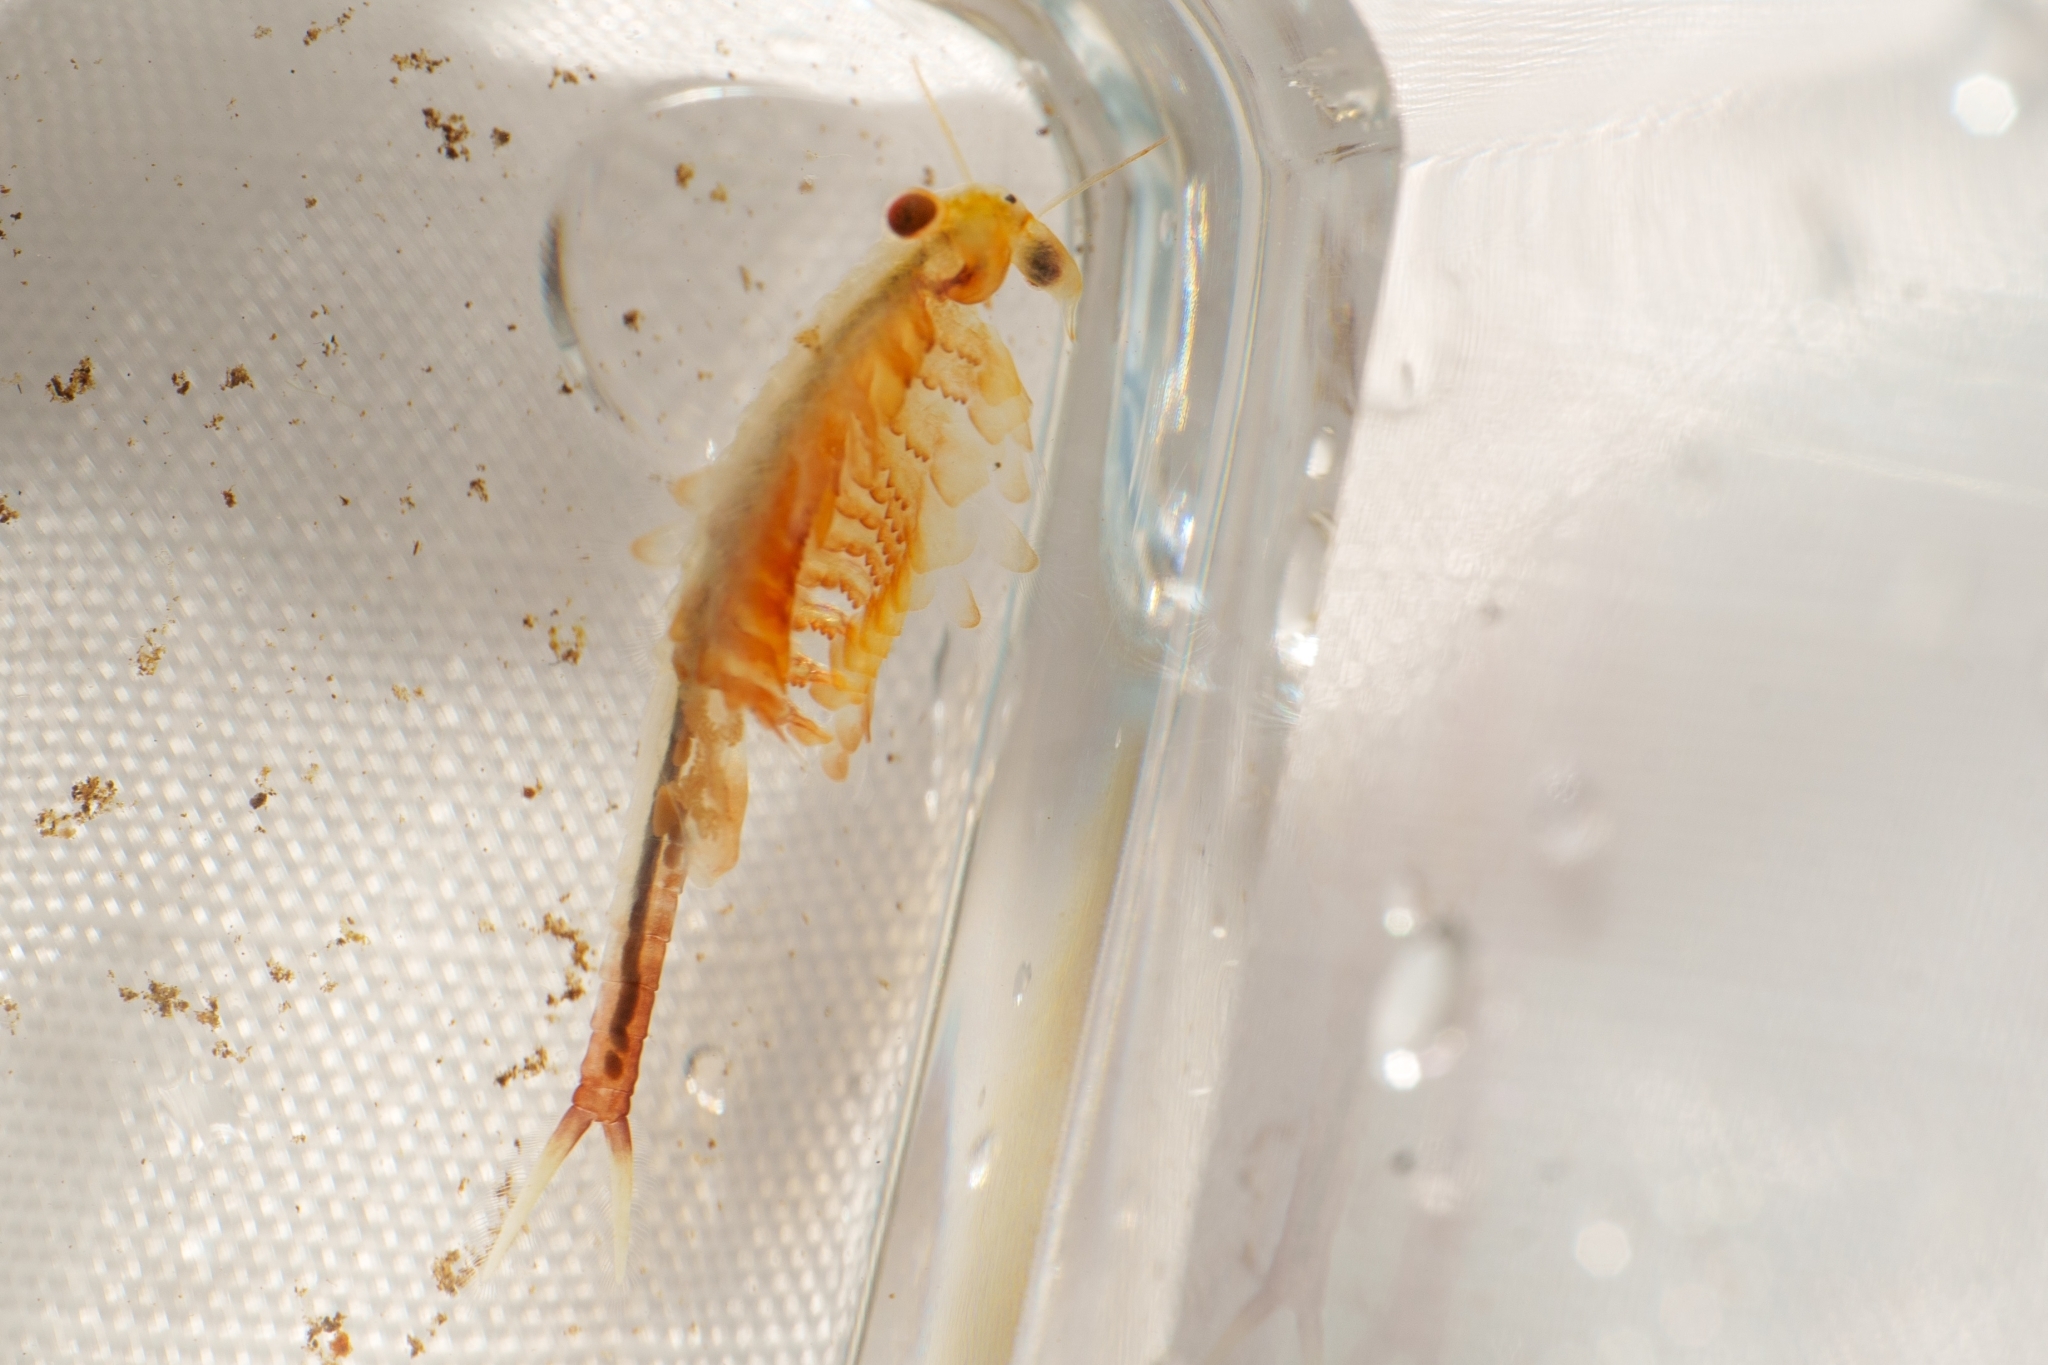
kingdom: Animalia
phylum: Arthropoda
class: Branchiopoda
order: Anostraca
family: Chirocephalidae
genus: Eubranchipus
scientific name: Eubranchipus oregonus
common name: Oregon fairy shrimp
